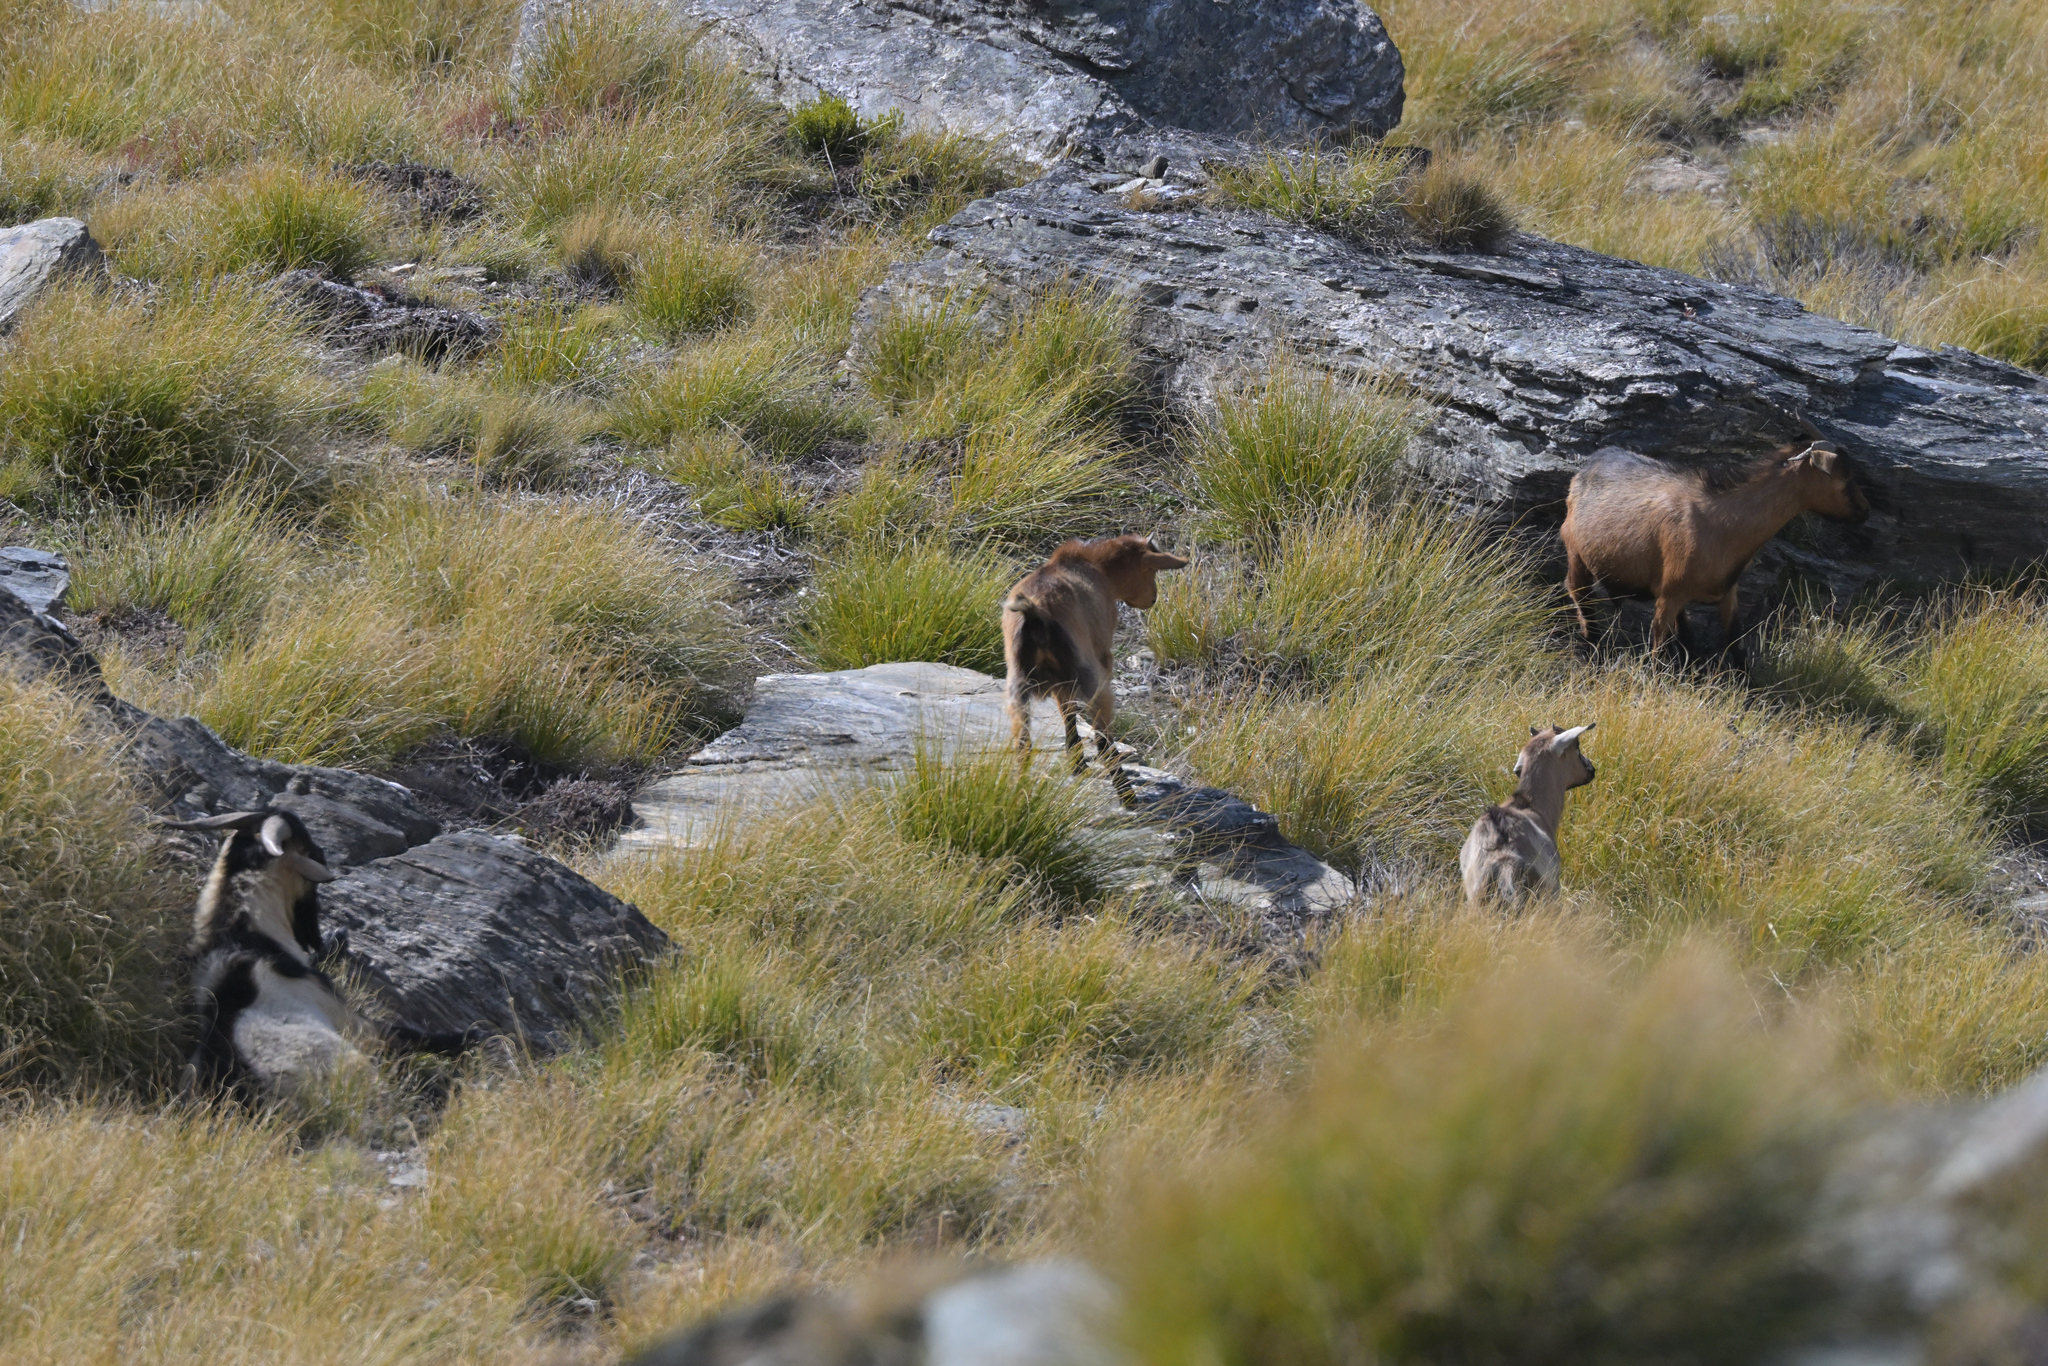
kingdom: Animalia
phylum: Chordata
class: Mammalia
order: Artiodactyla
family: Bovidae
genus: Capra
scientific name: Capra hircus
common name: Domestic goat
